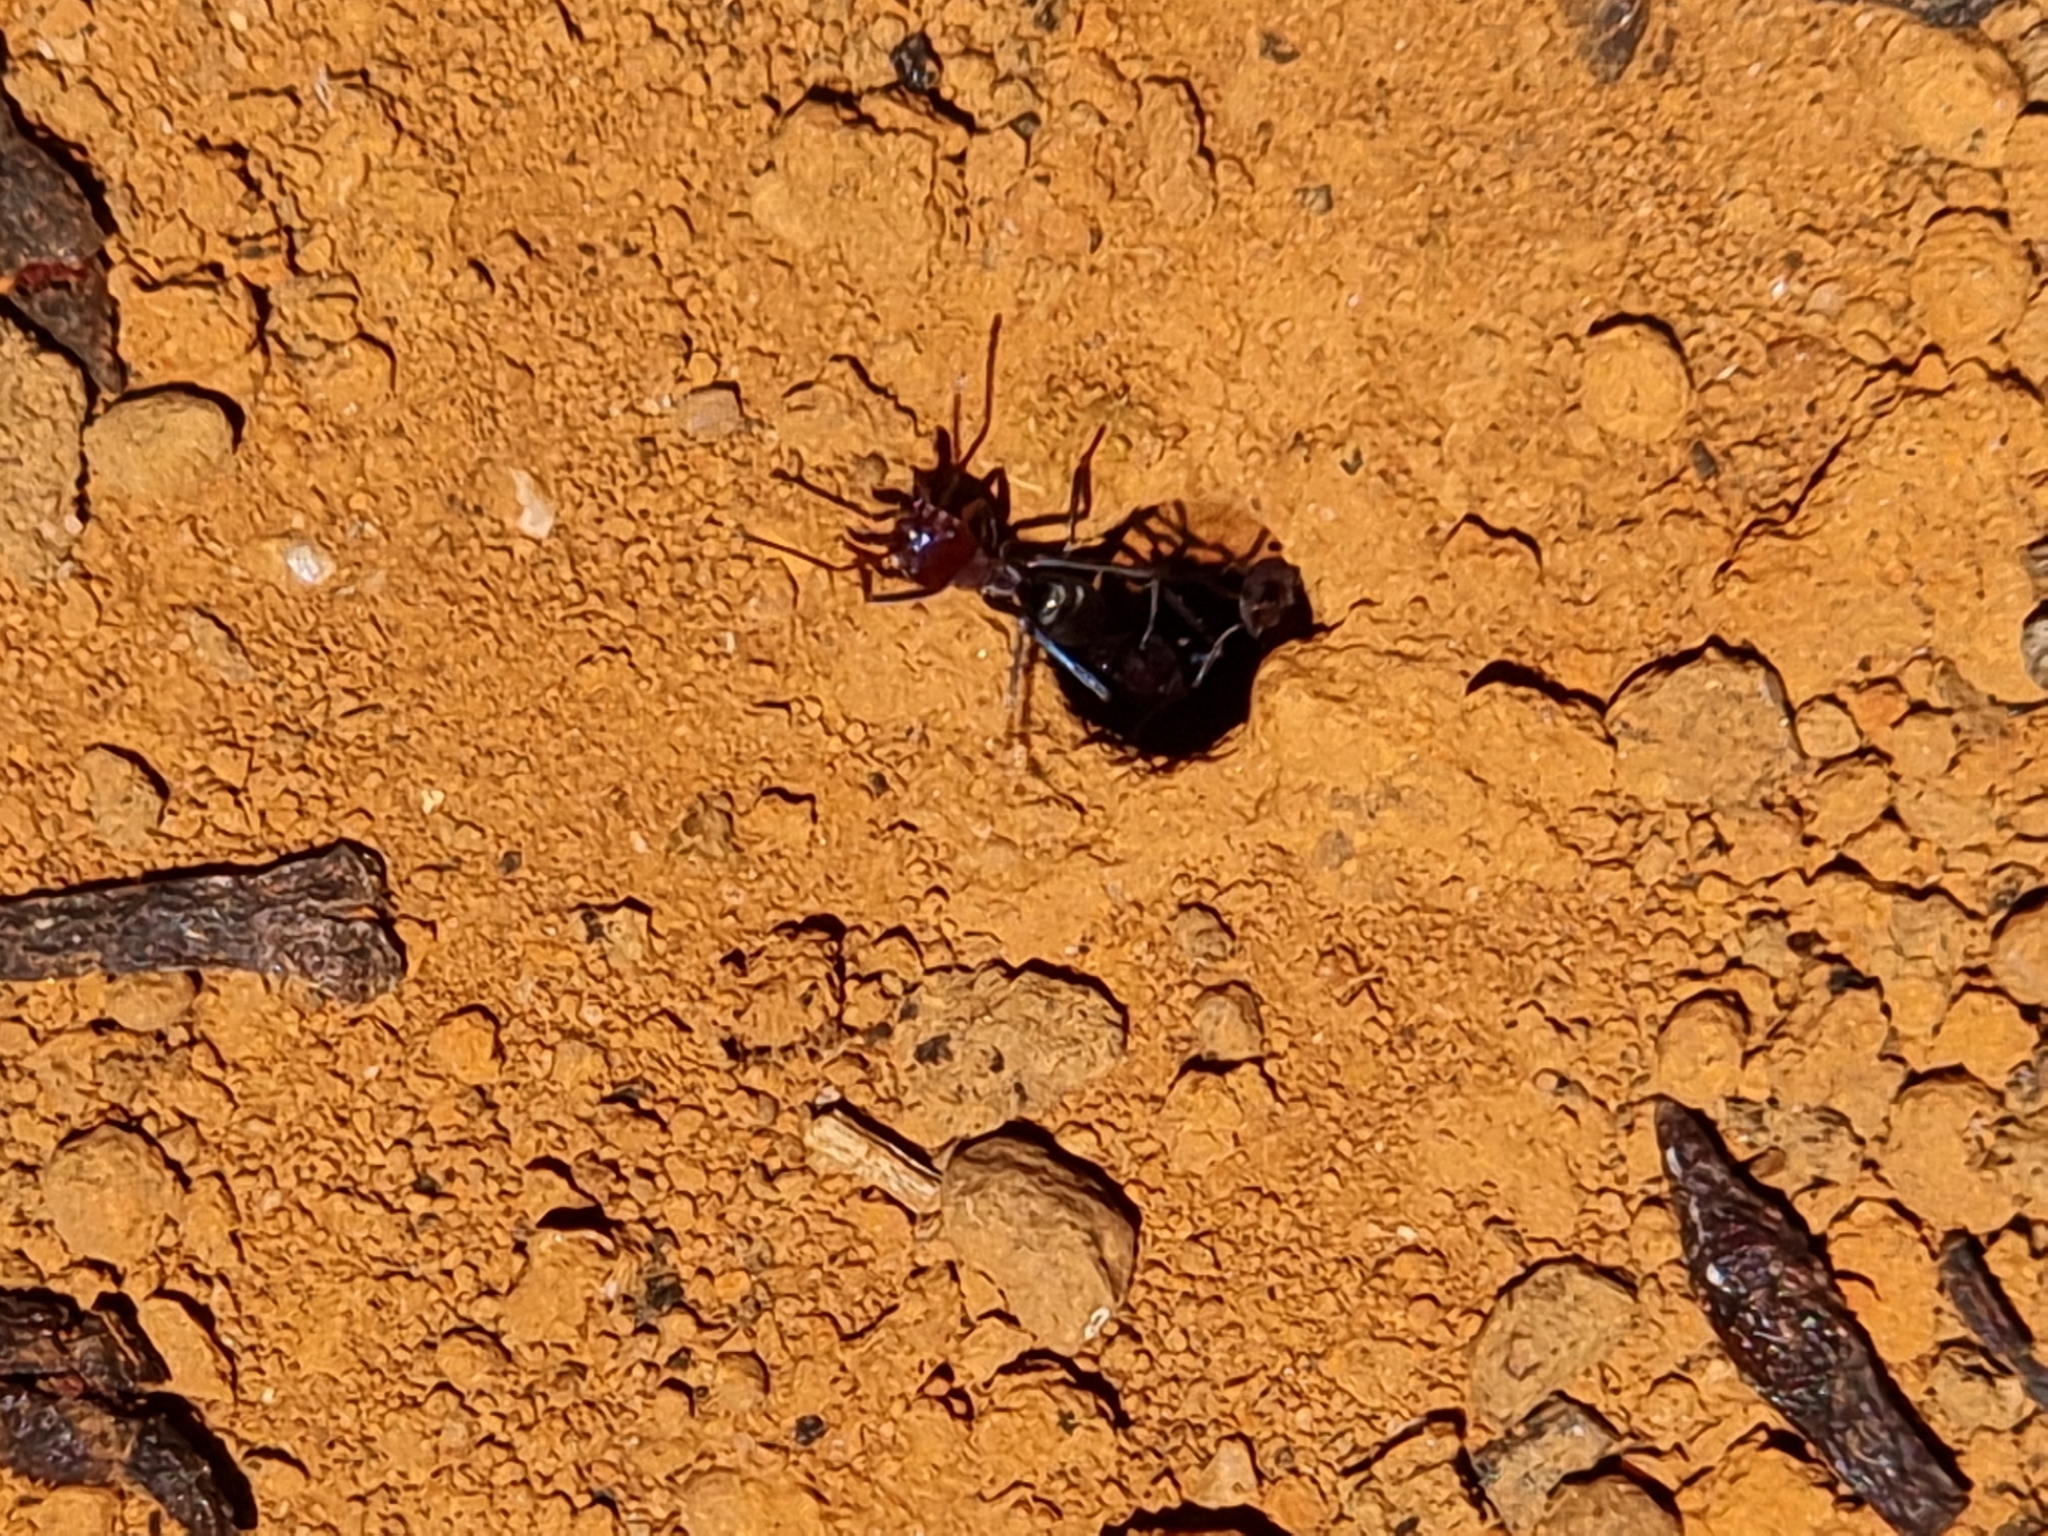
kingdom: Animalia
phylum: Arthropoda
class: Insecta
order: Hymenoptera
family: Formicidae
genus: Iridomyrmex
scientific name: Iridomyrmex purpureus
